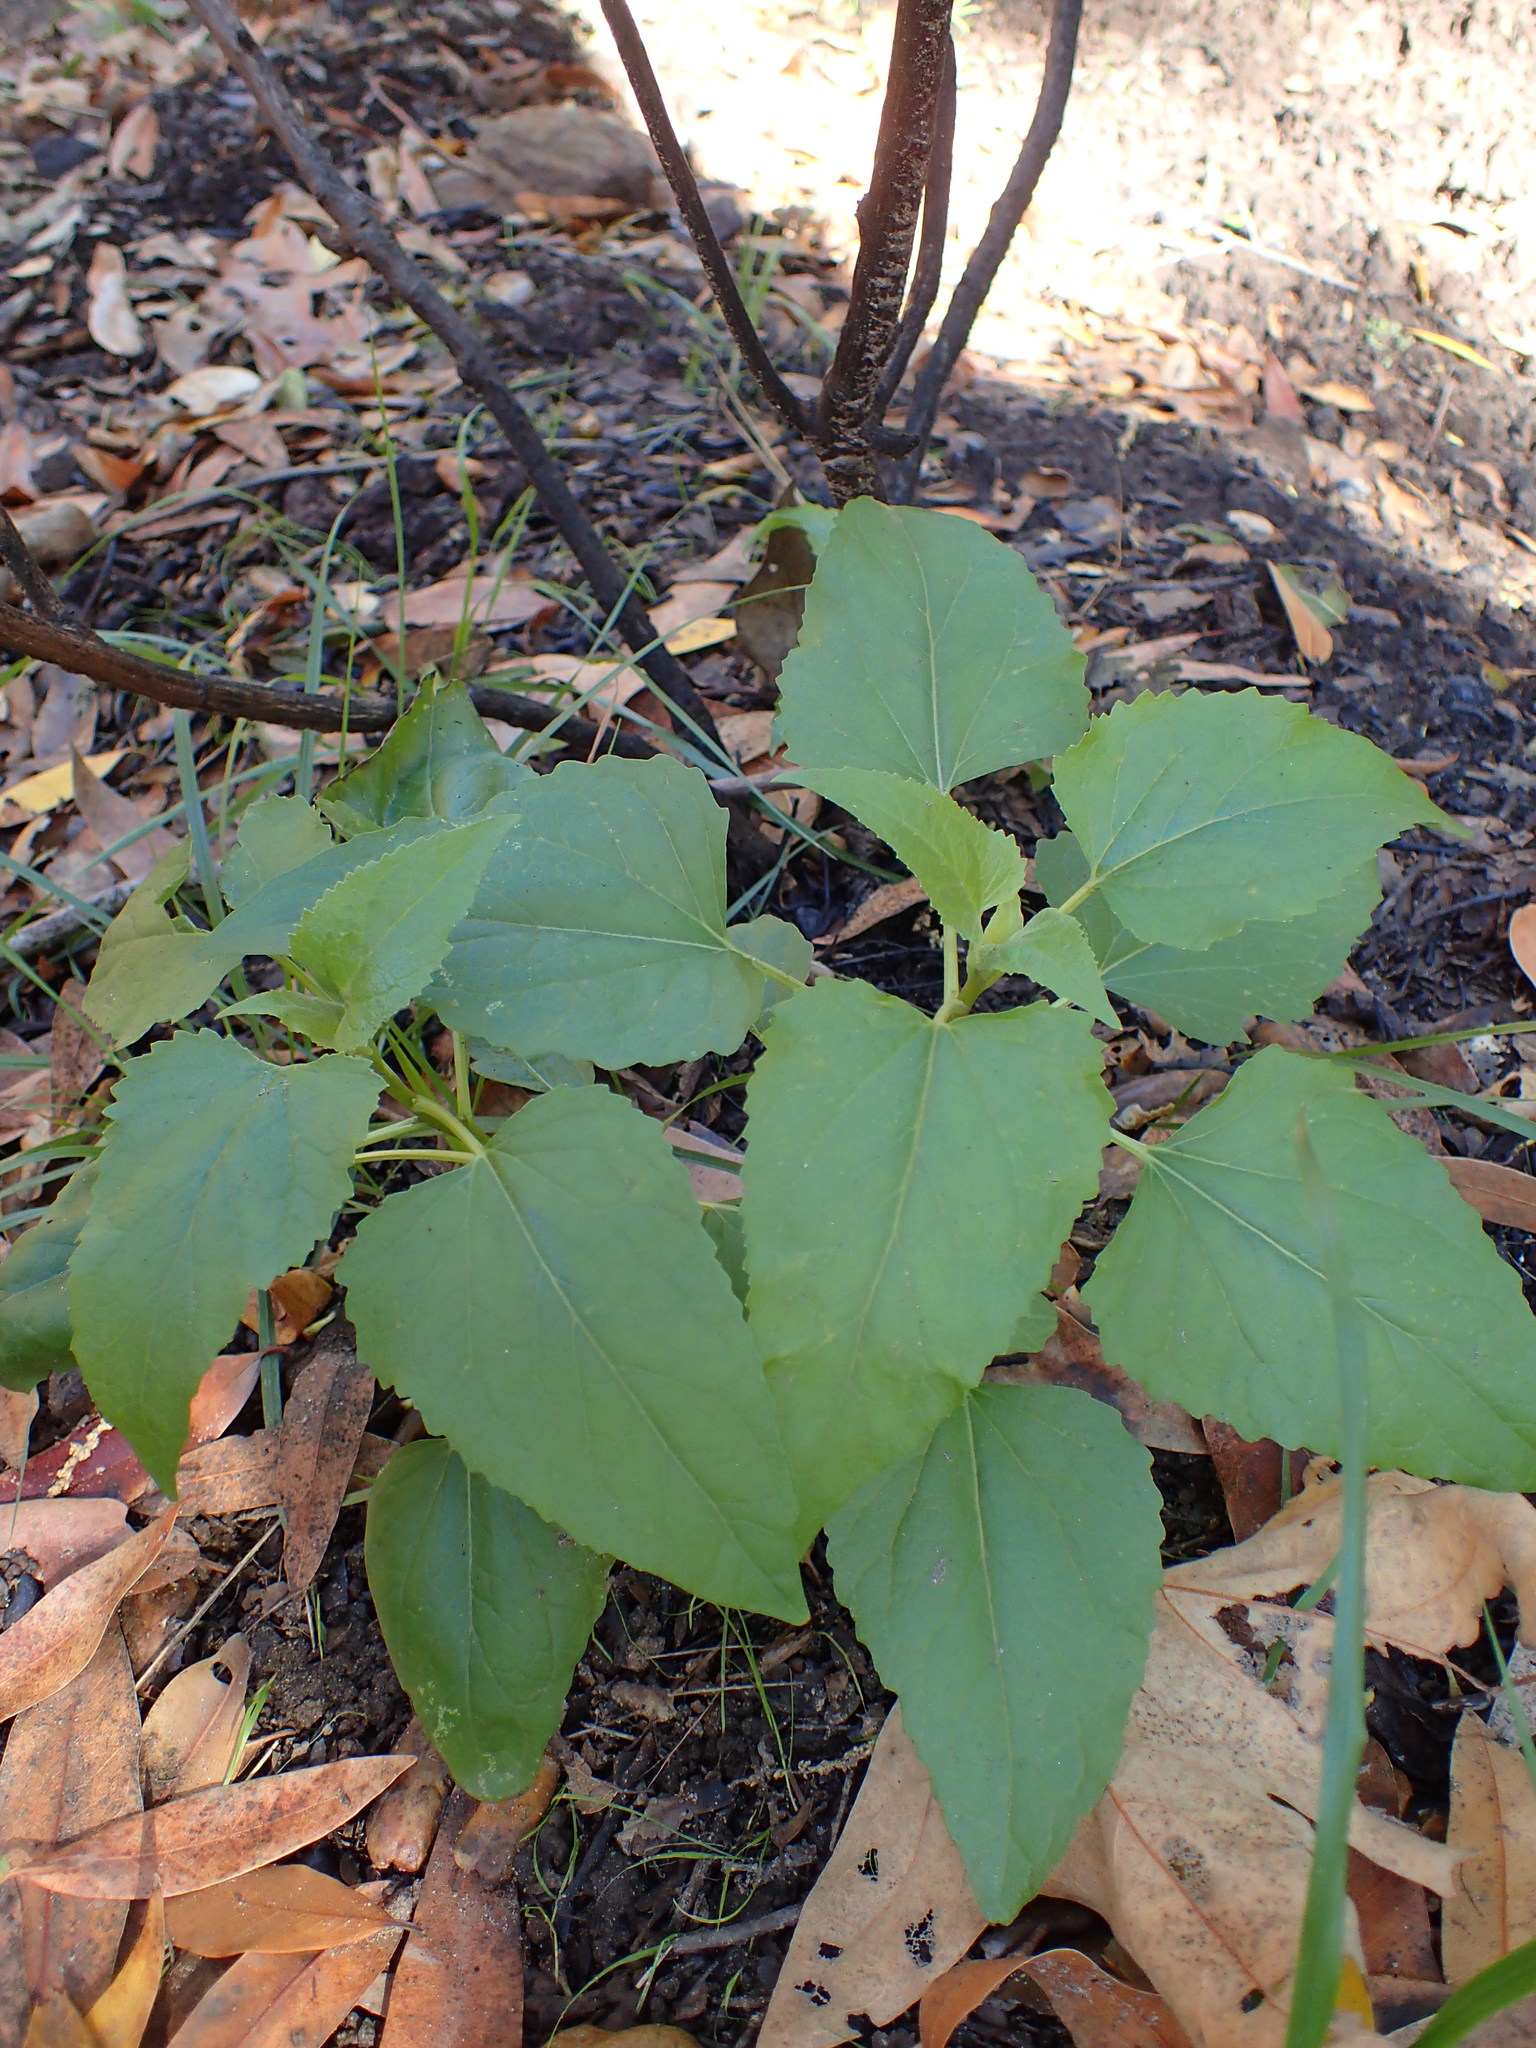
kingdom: Plantae
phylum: Tracheophyta
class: Magnoliopsida
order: Asterales
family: Asteraceae
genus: Venegasia
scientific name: Venegasia carpesioides
